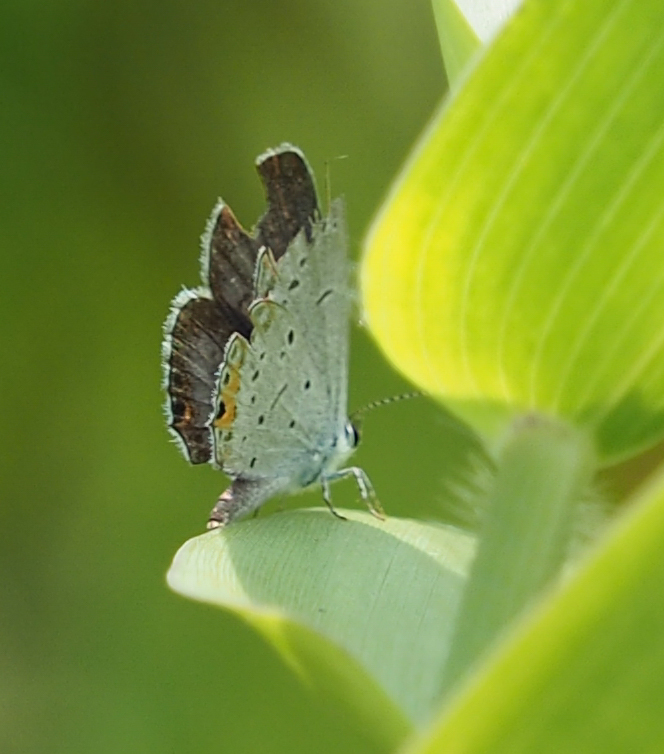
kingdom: Animalia
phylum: Arthropoda
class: Insecta
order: Lepidoptera
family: Lycaenidae
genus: Elkalyce
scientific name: Elkalyce comyntas
